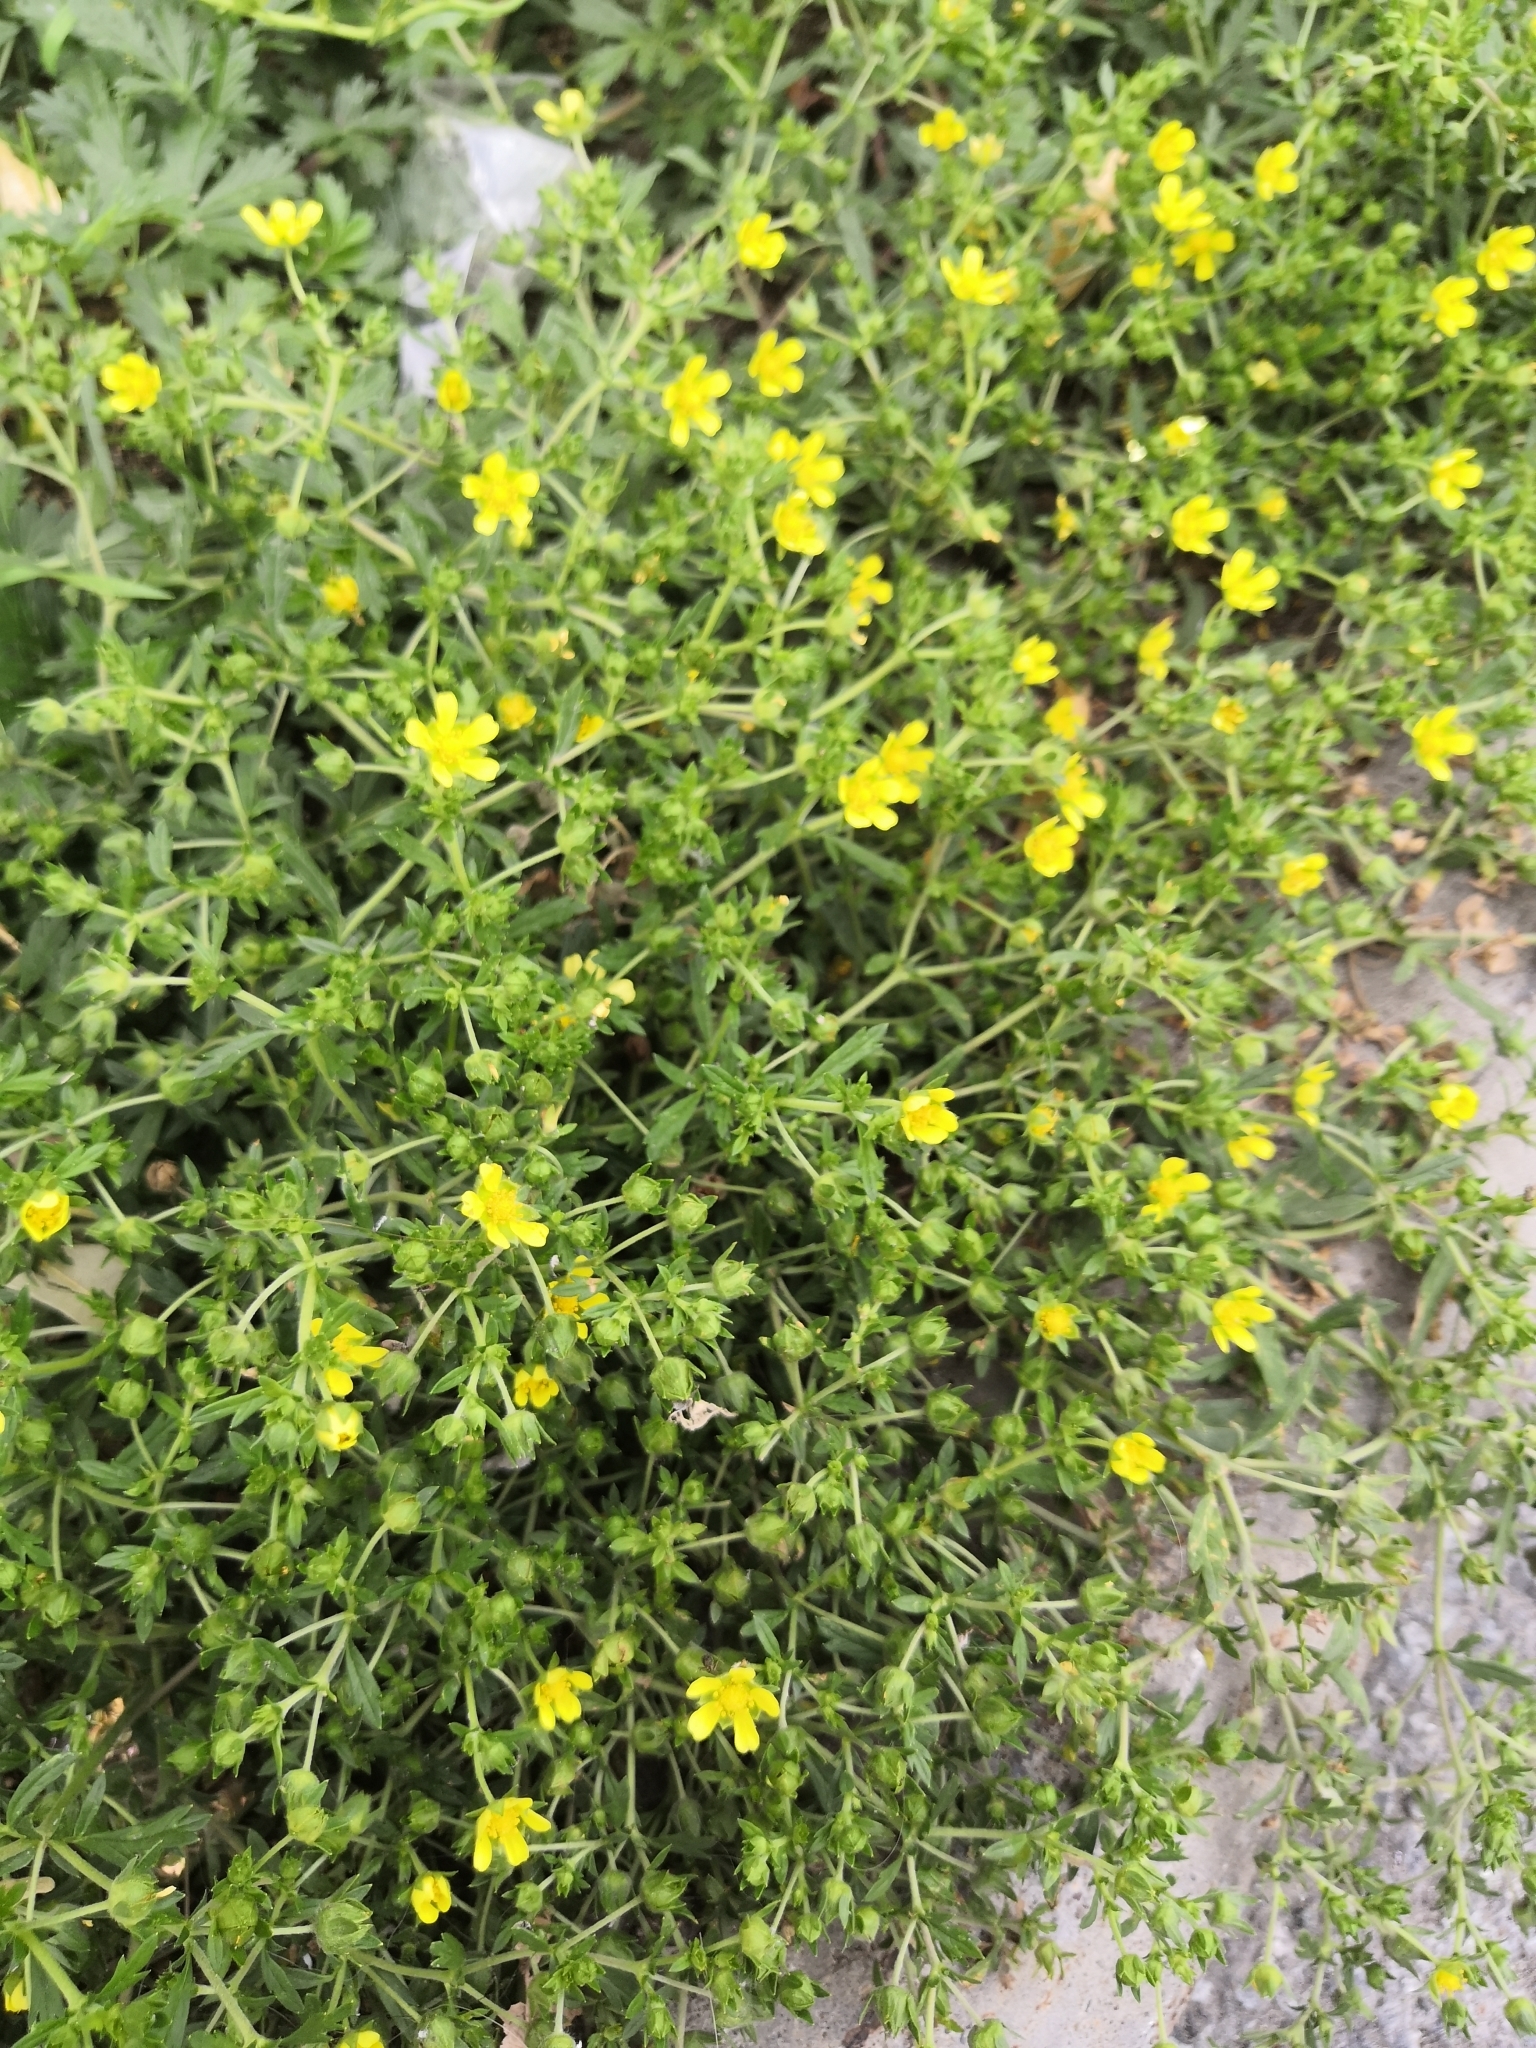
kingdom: Plantae
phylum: Tracheophyta
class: Magnoliopsida
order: Rosales
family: Rosaceae
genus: Potentilla
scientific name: Potentilla argentea
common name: Hoary cinquefoil
